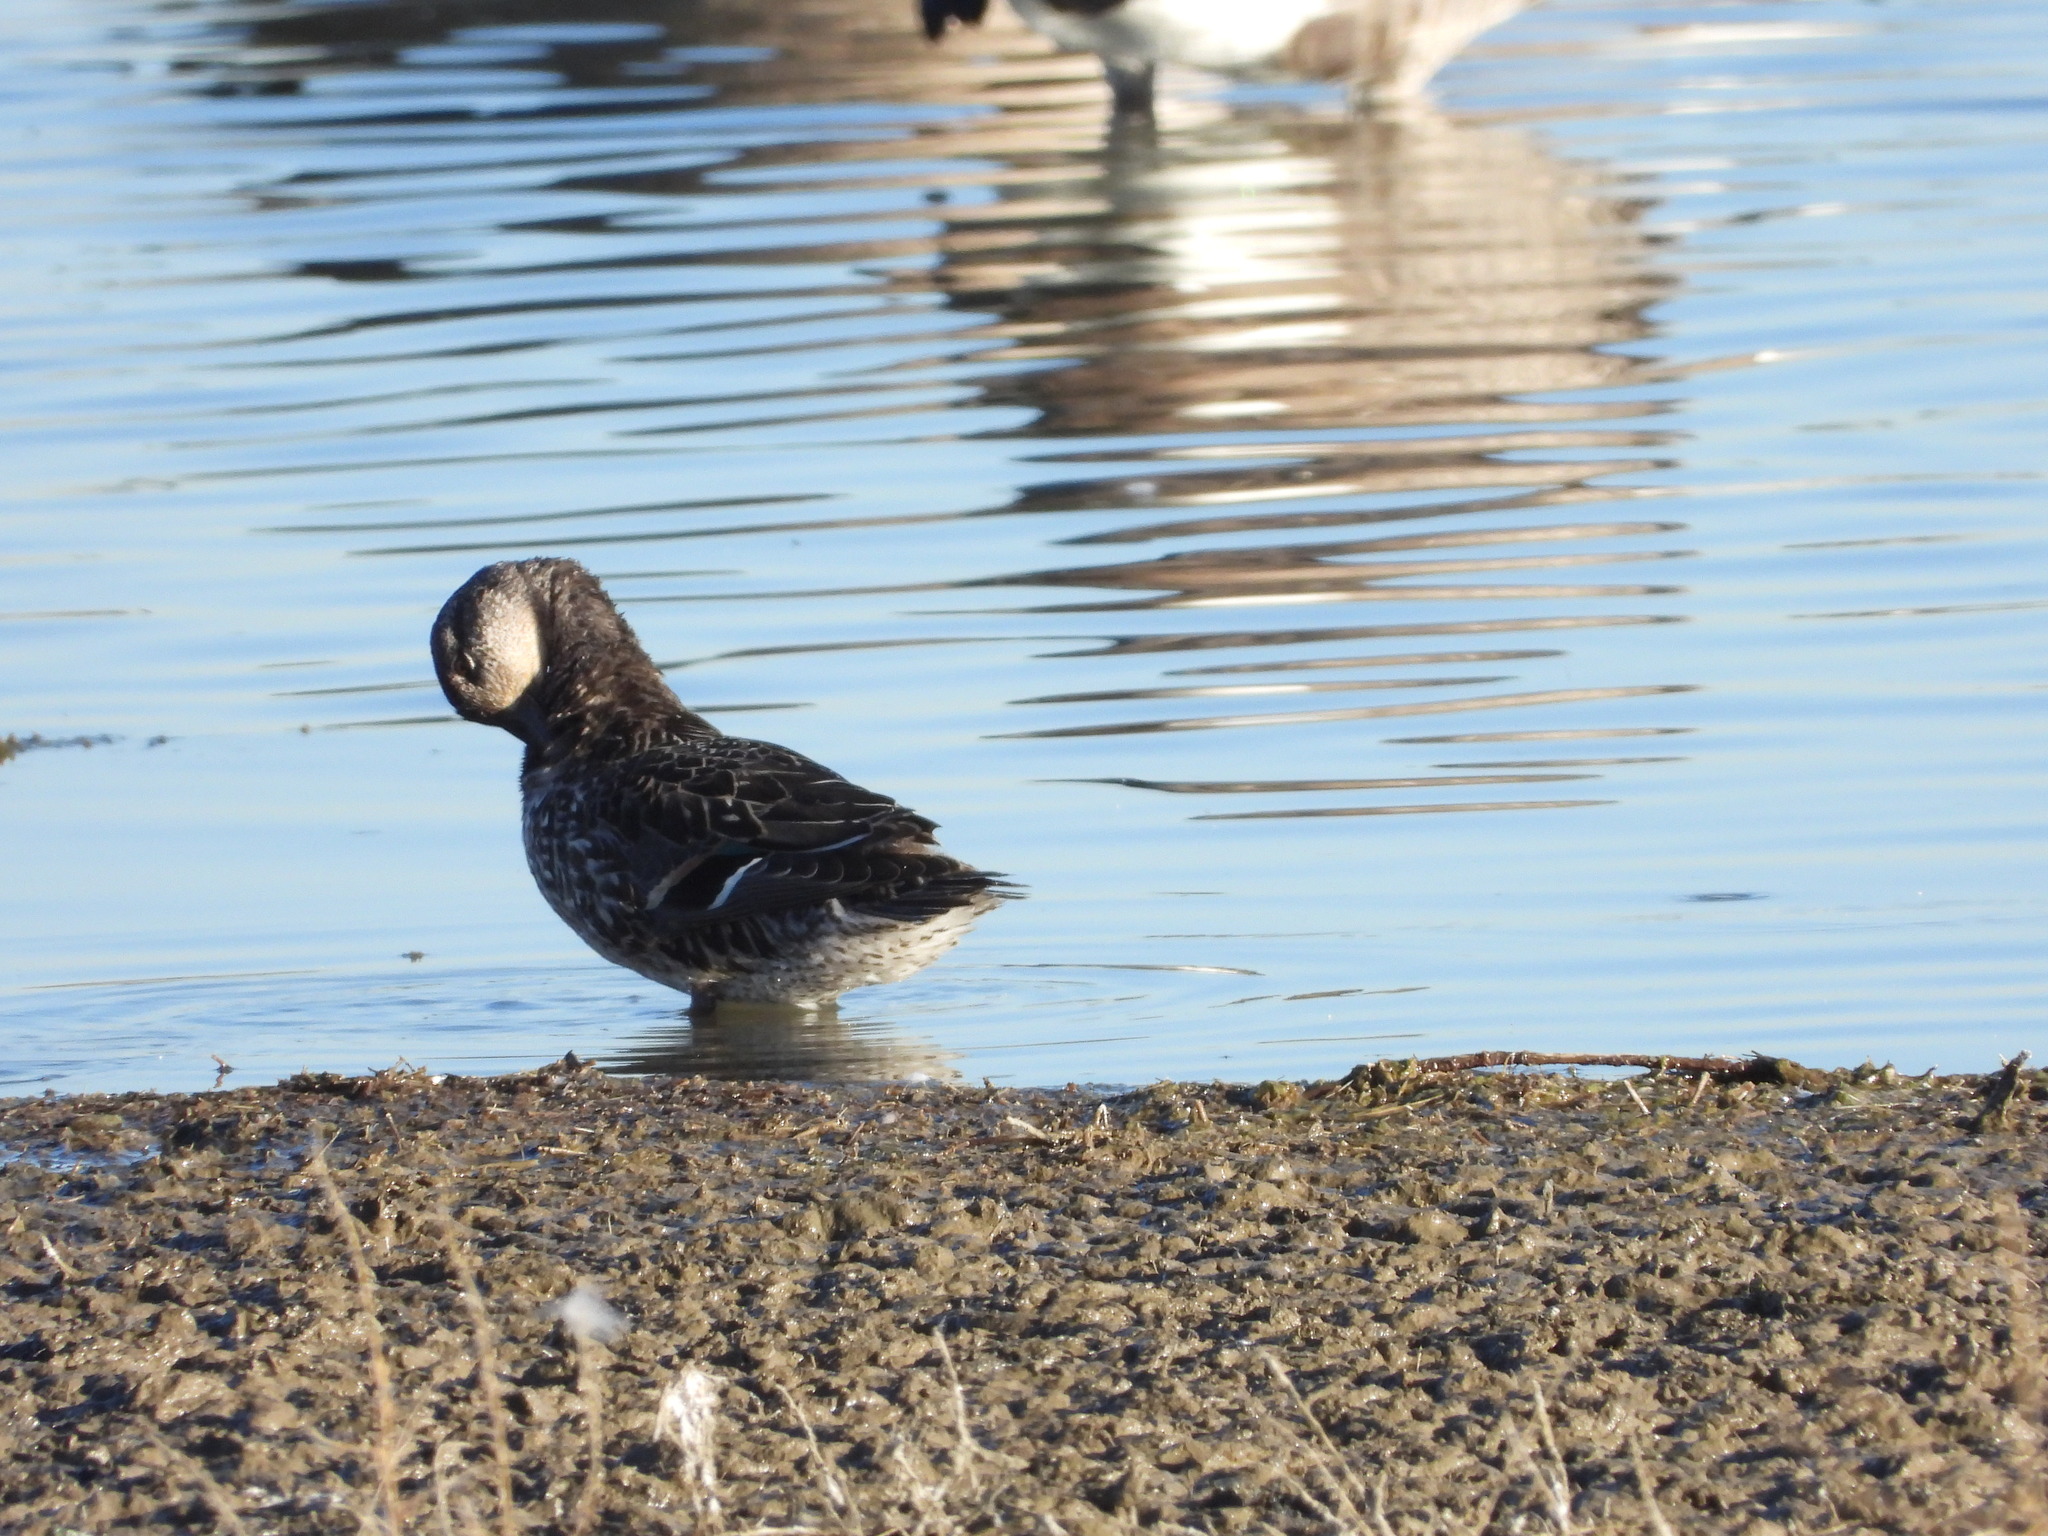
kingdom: Animalia
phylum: Chordata
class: Aves
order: Anseriformes
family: Anatidae
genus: Anas
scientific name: Anas crecca
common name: Eurasian teal
